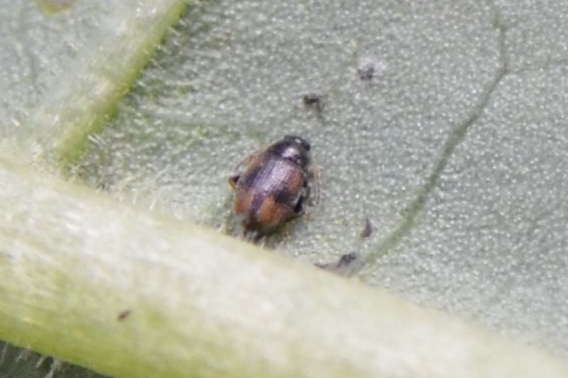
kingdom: Animalia
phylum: Arthropoda
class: Insecta
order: Coleoptera
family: Chrysomelidae
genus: Epitrix
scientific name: Epitrix atropae
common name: Belladonna flea beetle
